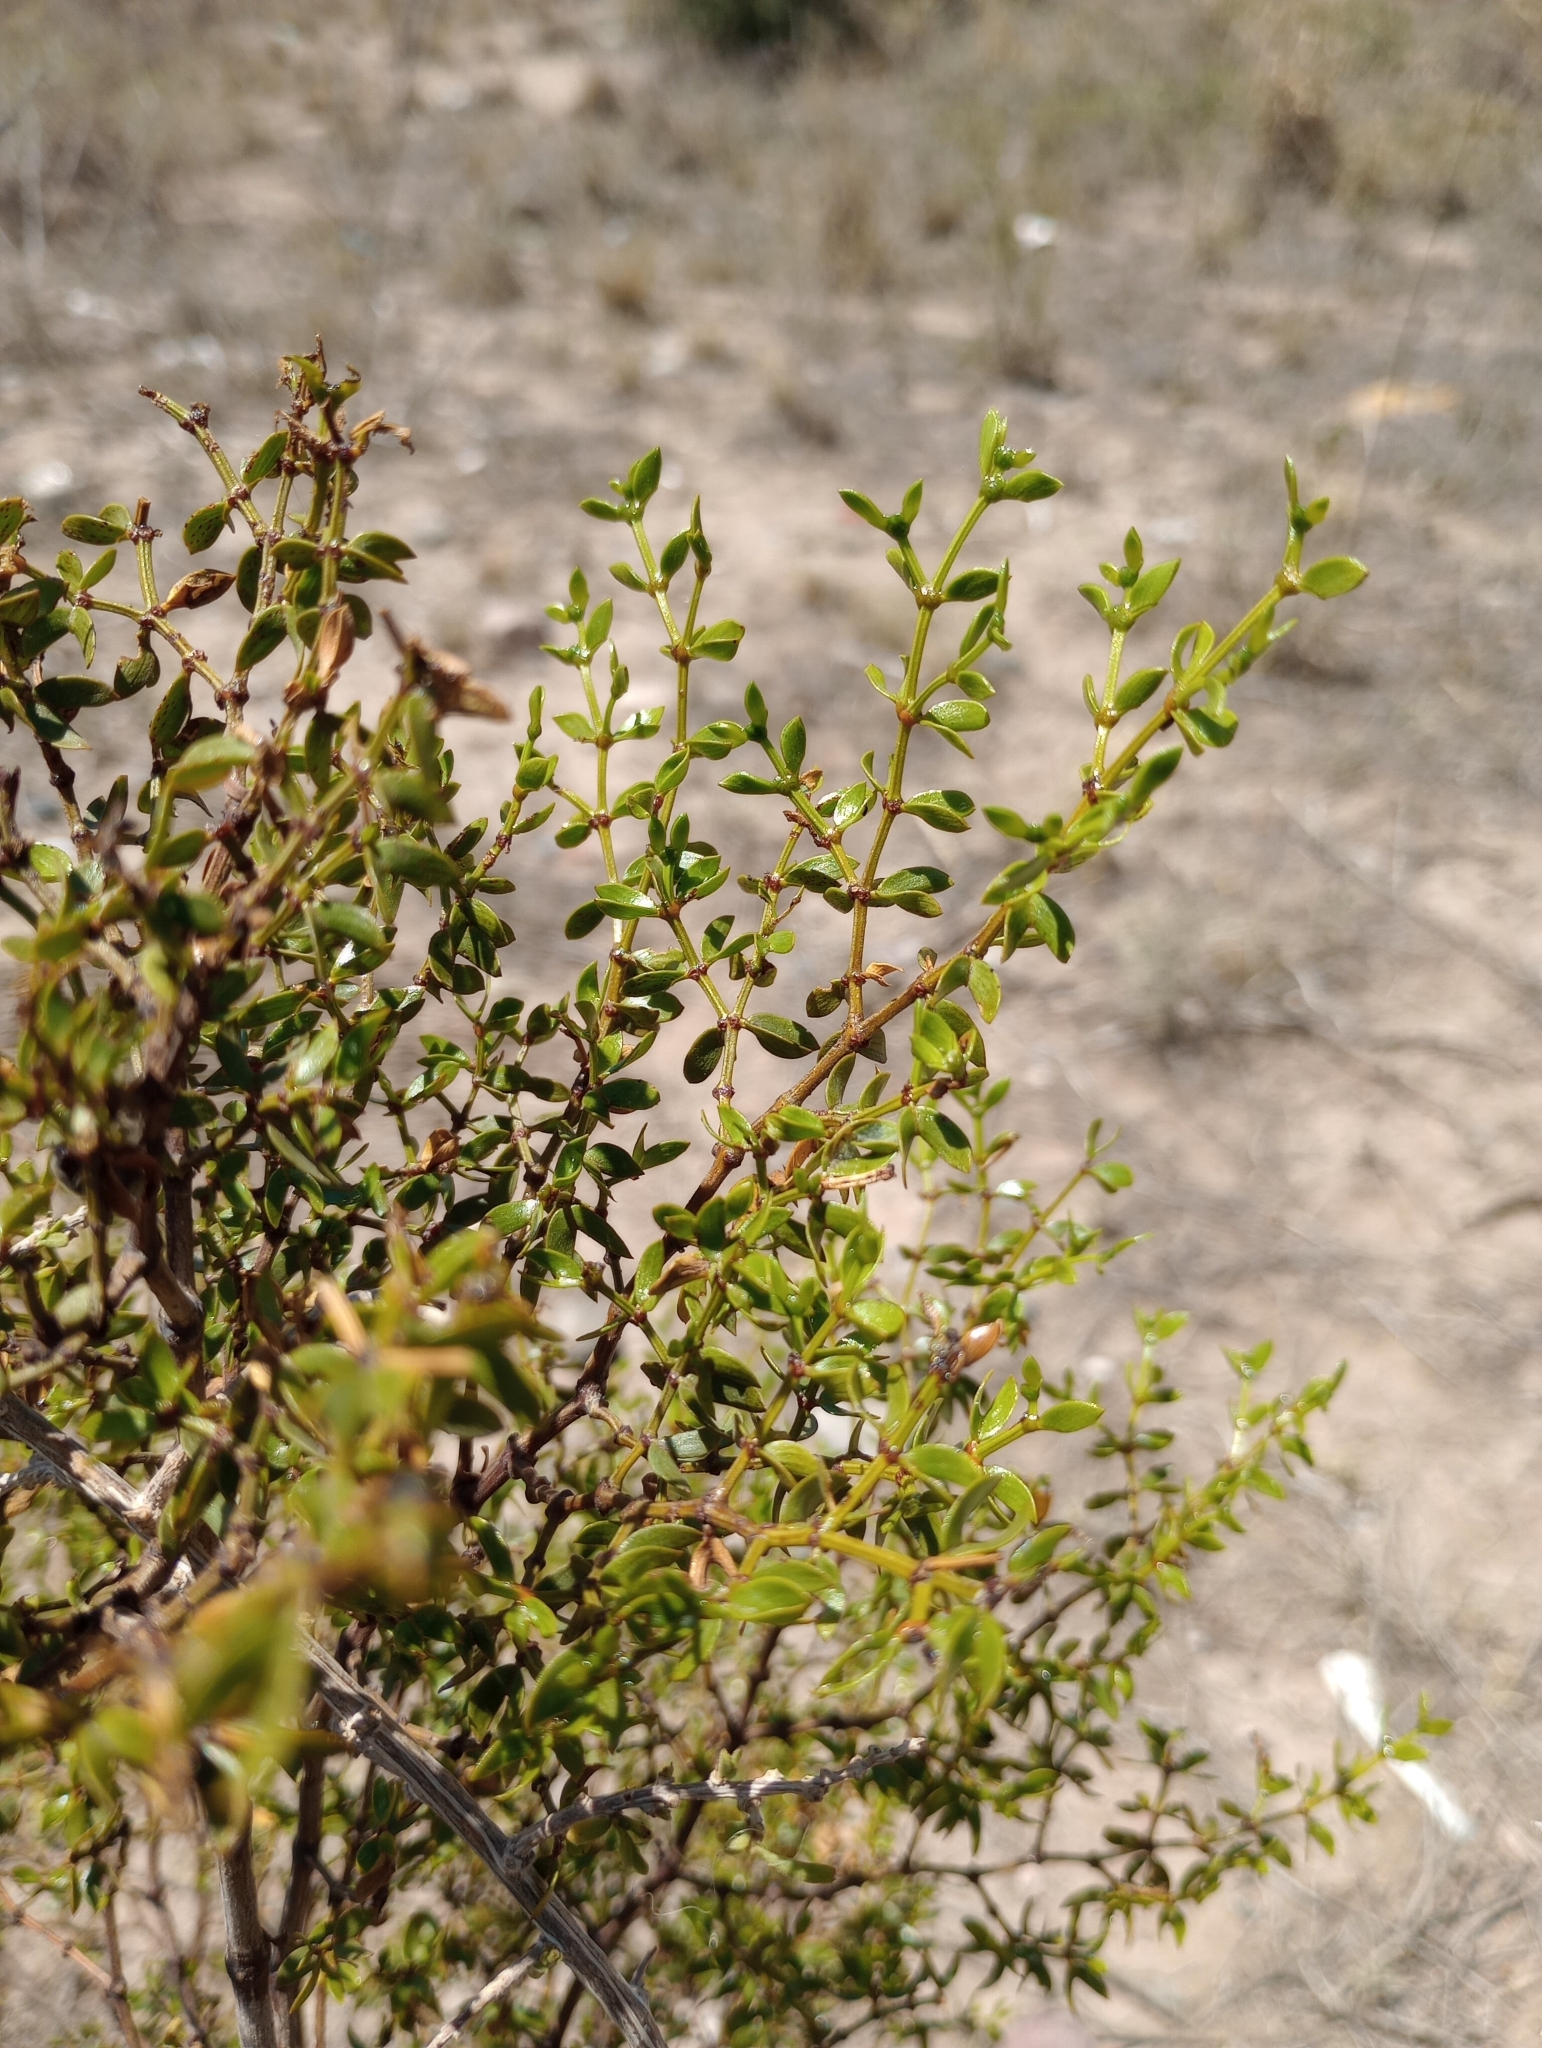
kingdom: Plantae
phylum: Tracheophyta
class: Magnoliopsida
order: Zygophyllales
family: Zygophyllaceae
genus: Larrea
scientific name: Larrea divaricata
